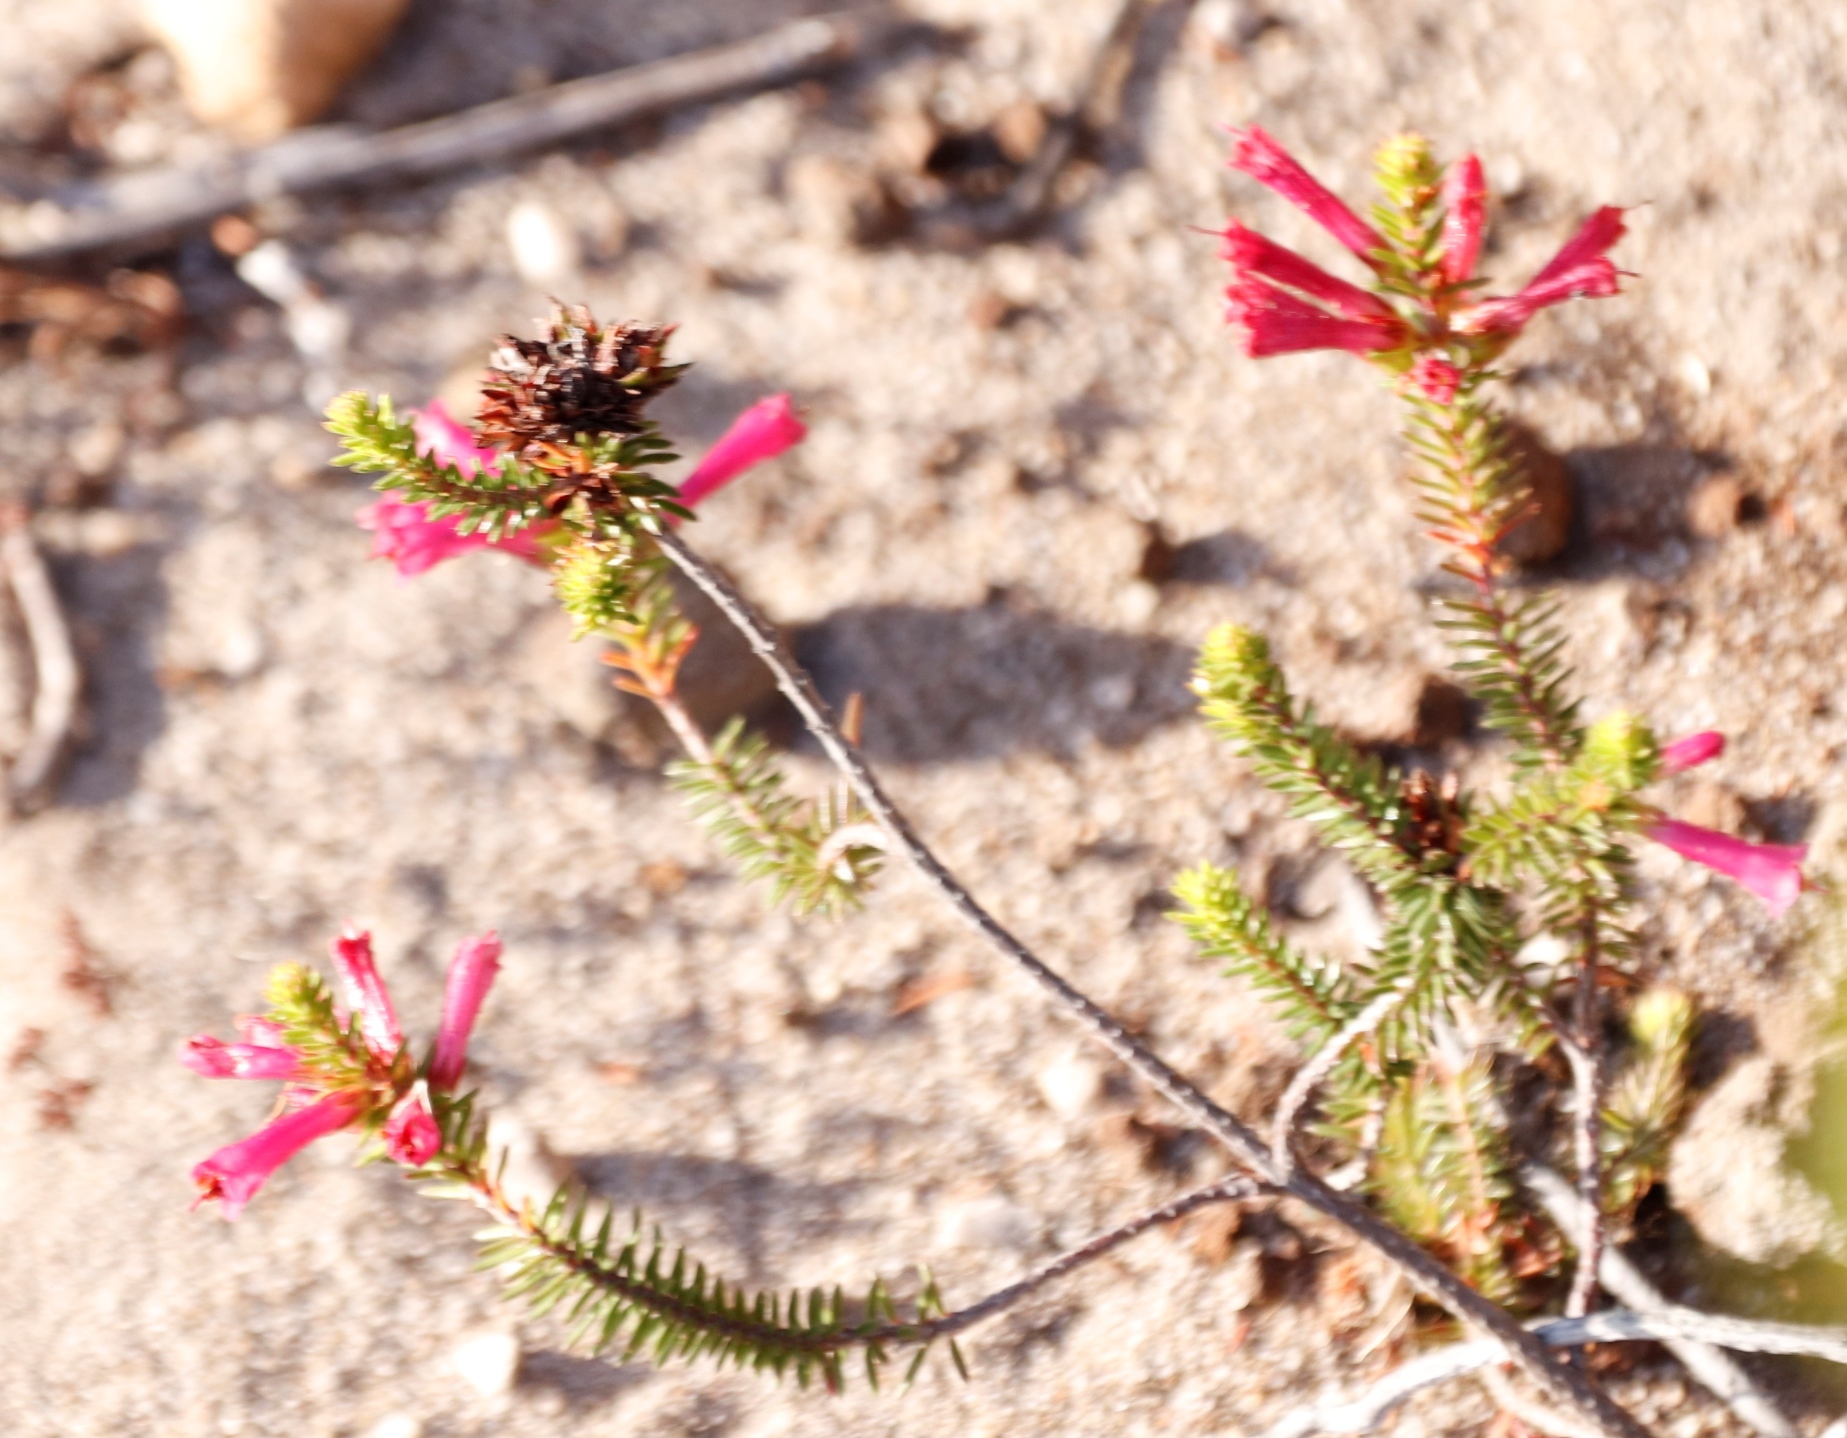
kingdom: Plantae
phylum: Tracheophyta
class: Magnoliopsida
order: Ericales
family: Ericaceae
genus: Erica
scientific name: Erica abietina
